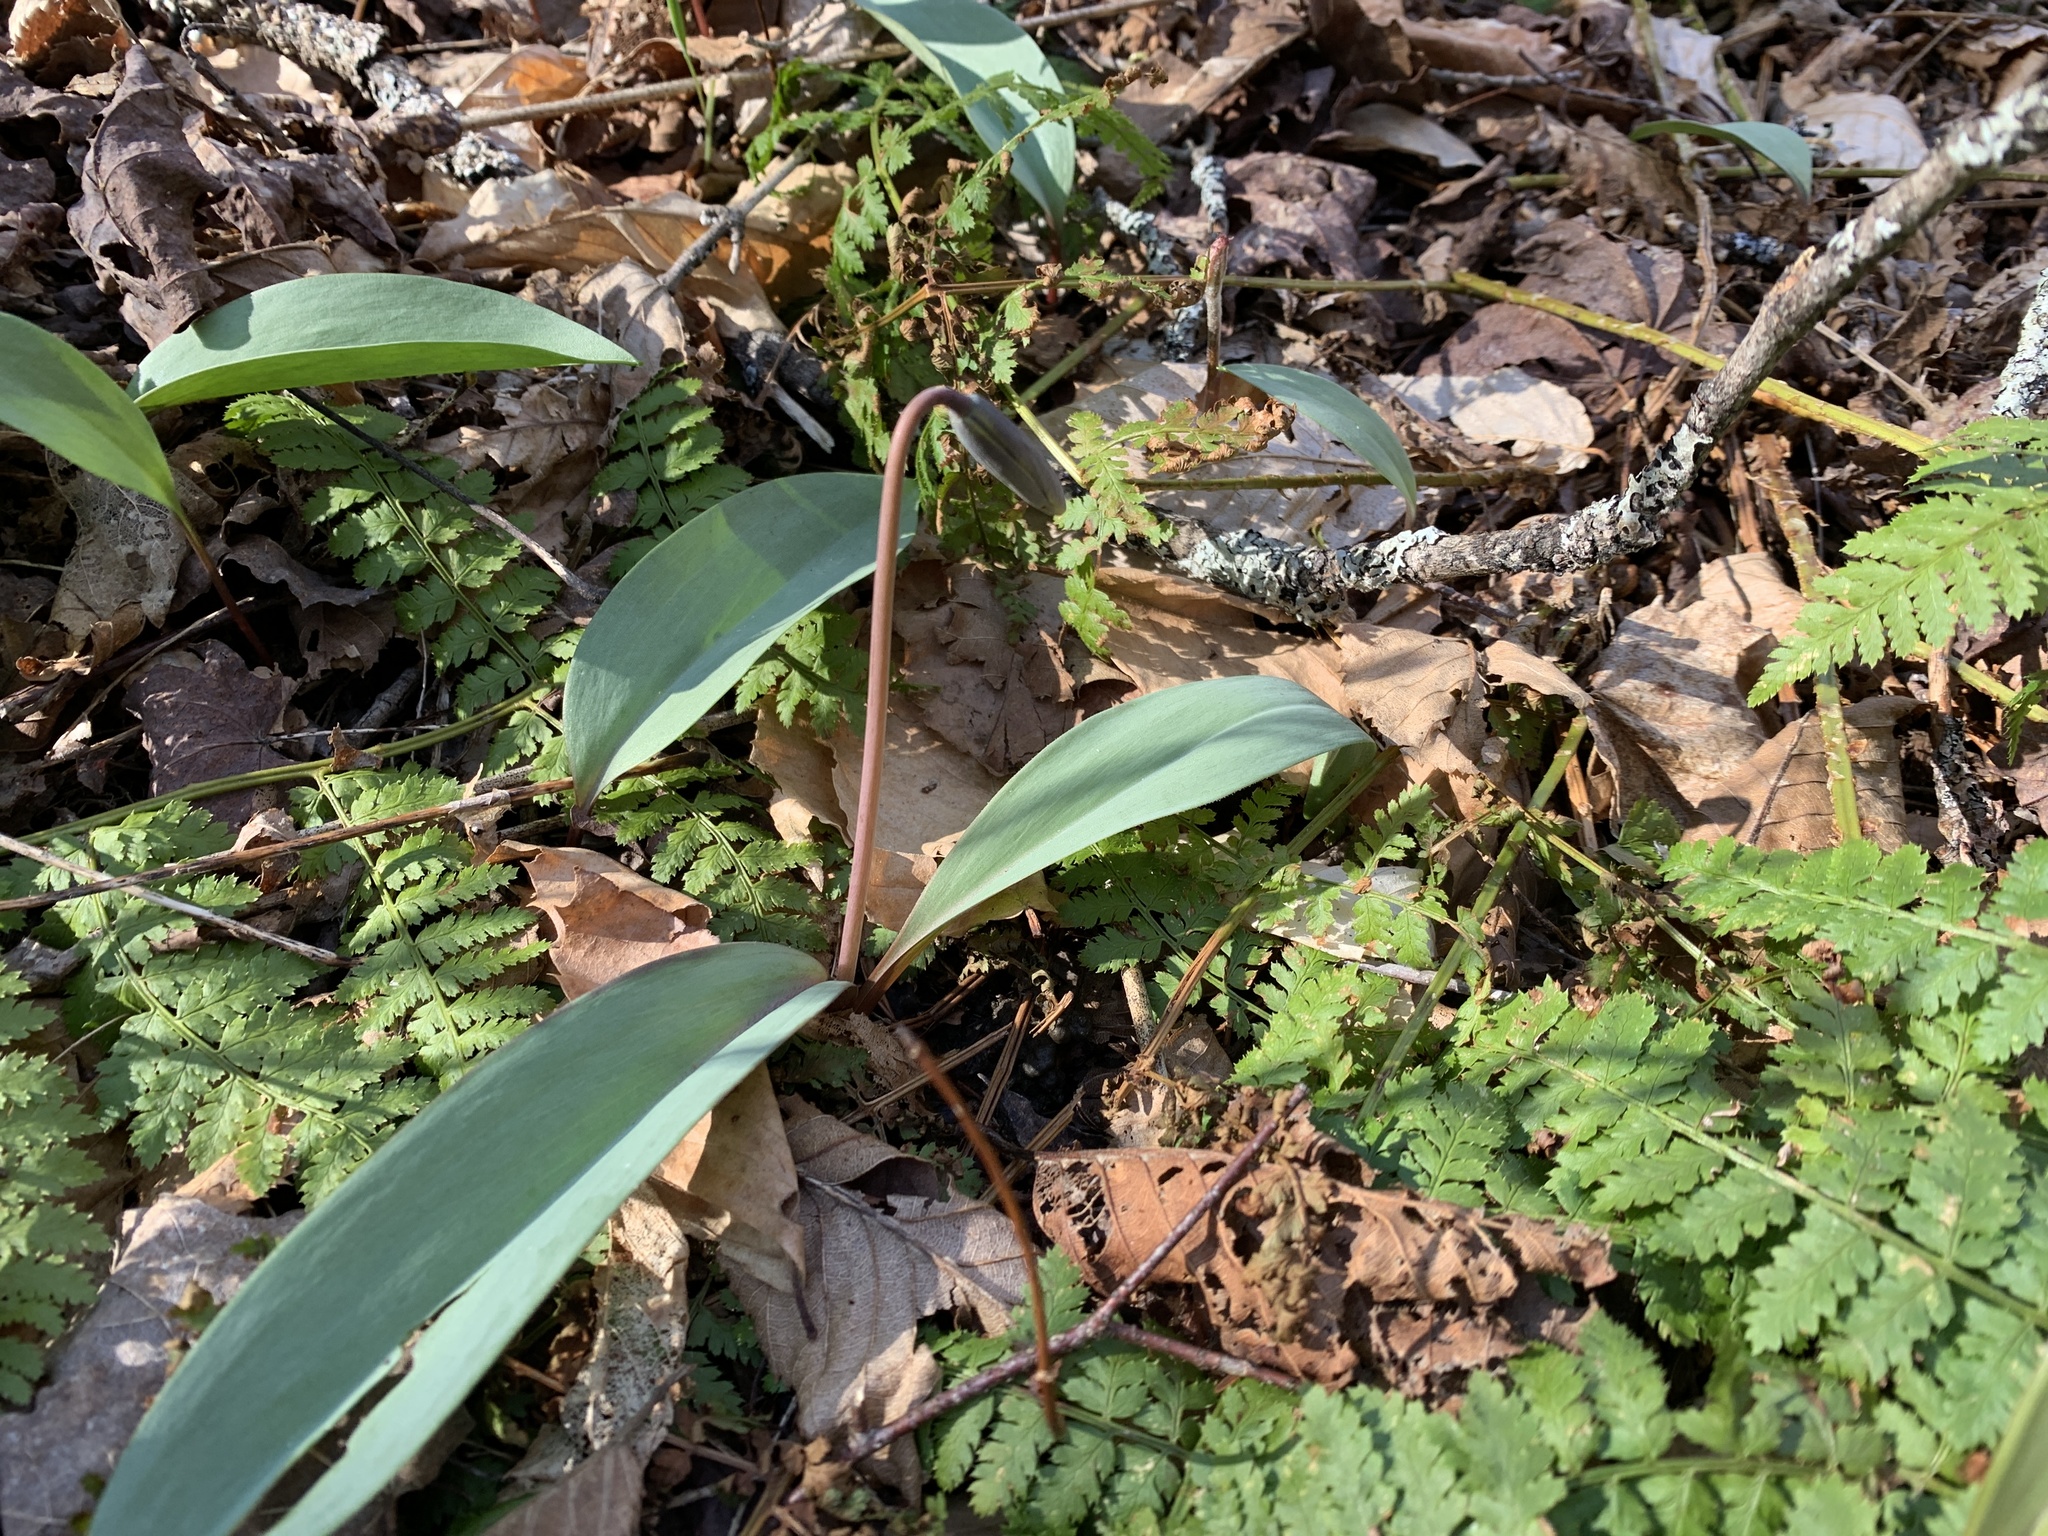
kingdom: Plantae
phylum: Tracheophyta
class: Liliopsida
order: Liliales
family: Liliaceae
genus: Erythronium
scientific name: Erythronium americanum
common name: Yellow adder's-tongue
